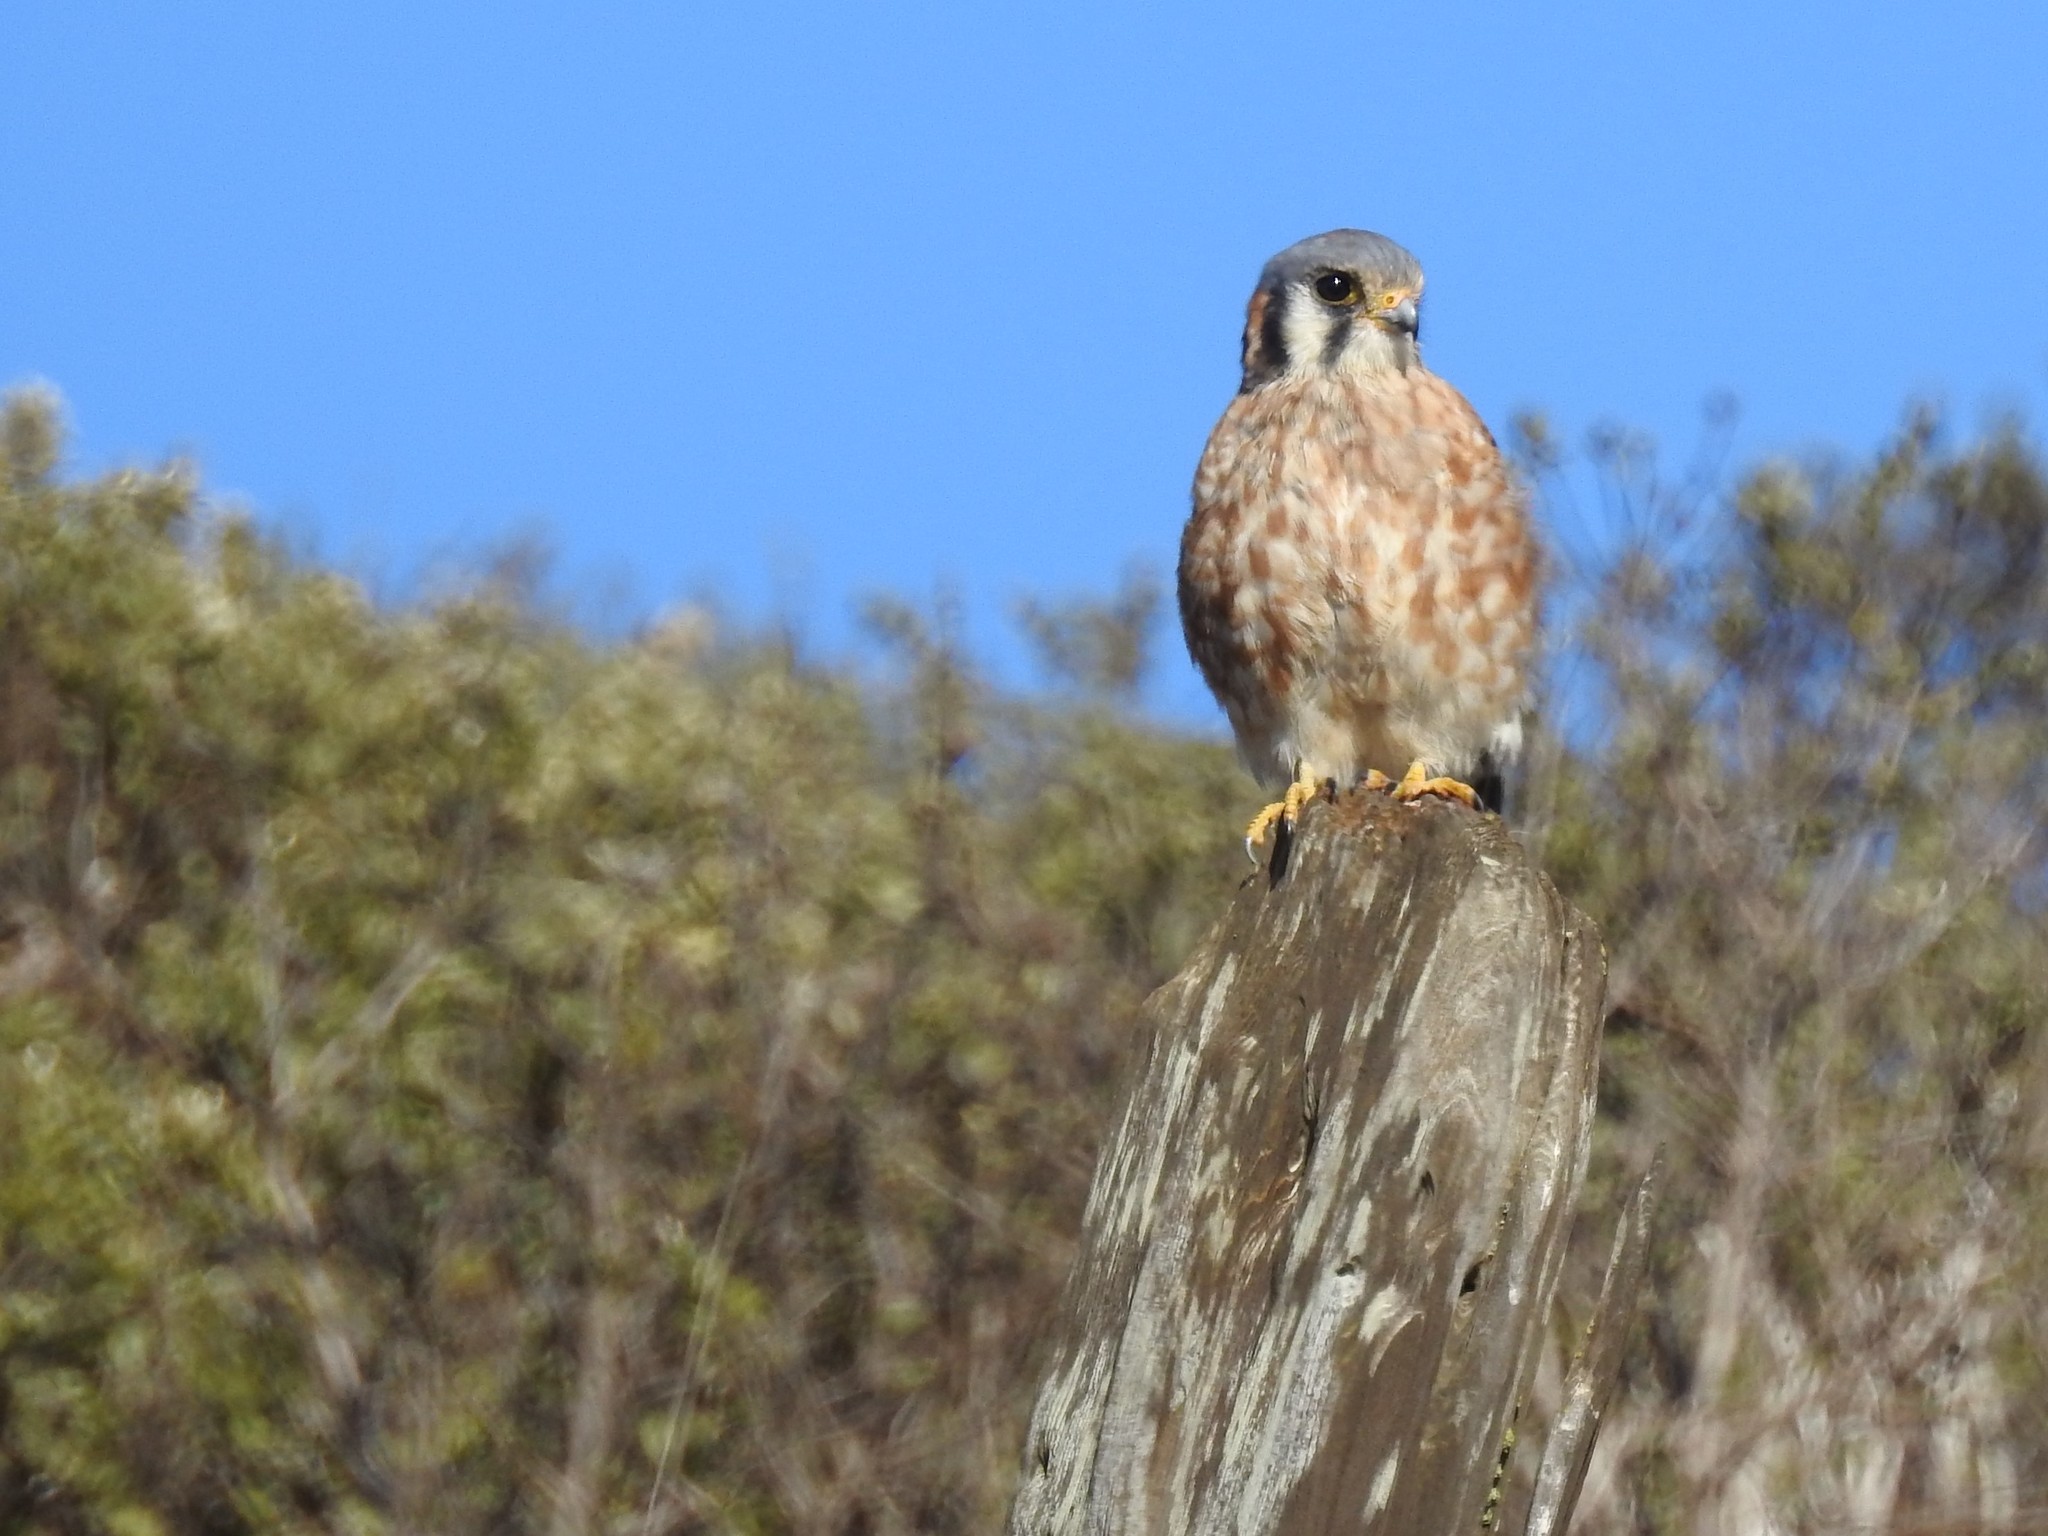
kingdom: Animalia
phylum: Chordata
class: Aves
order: Falconiformes
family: Falconidae
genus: Falco
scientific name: Falco sparverius
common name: American kestrel
